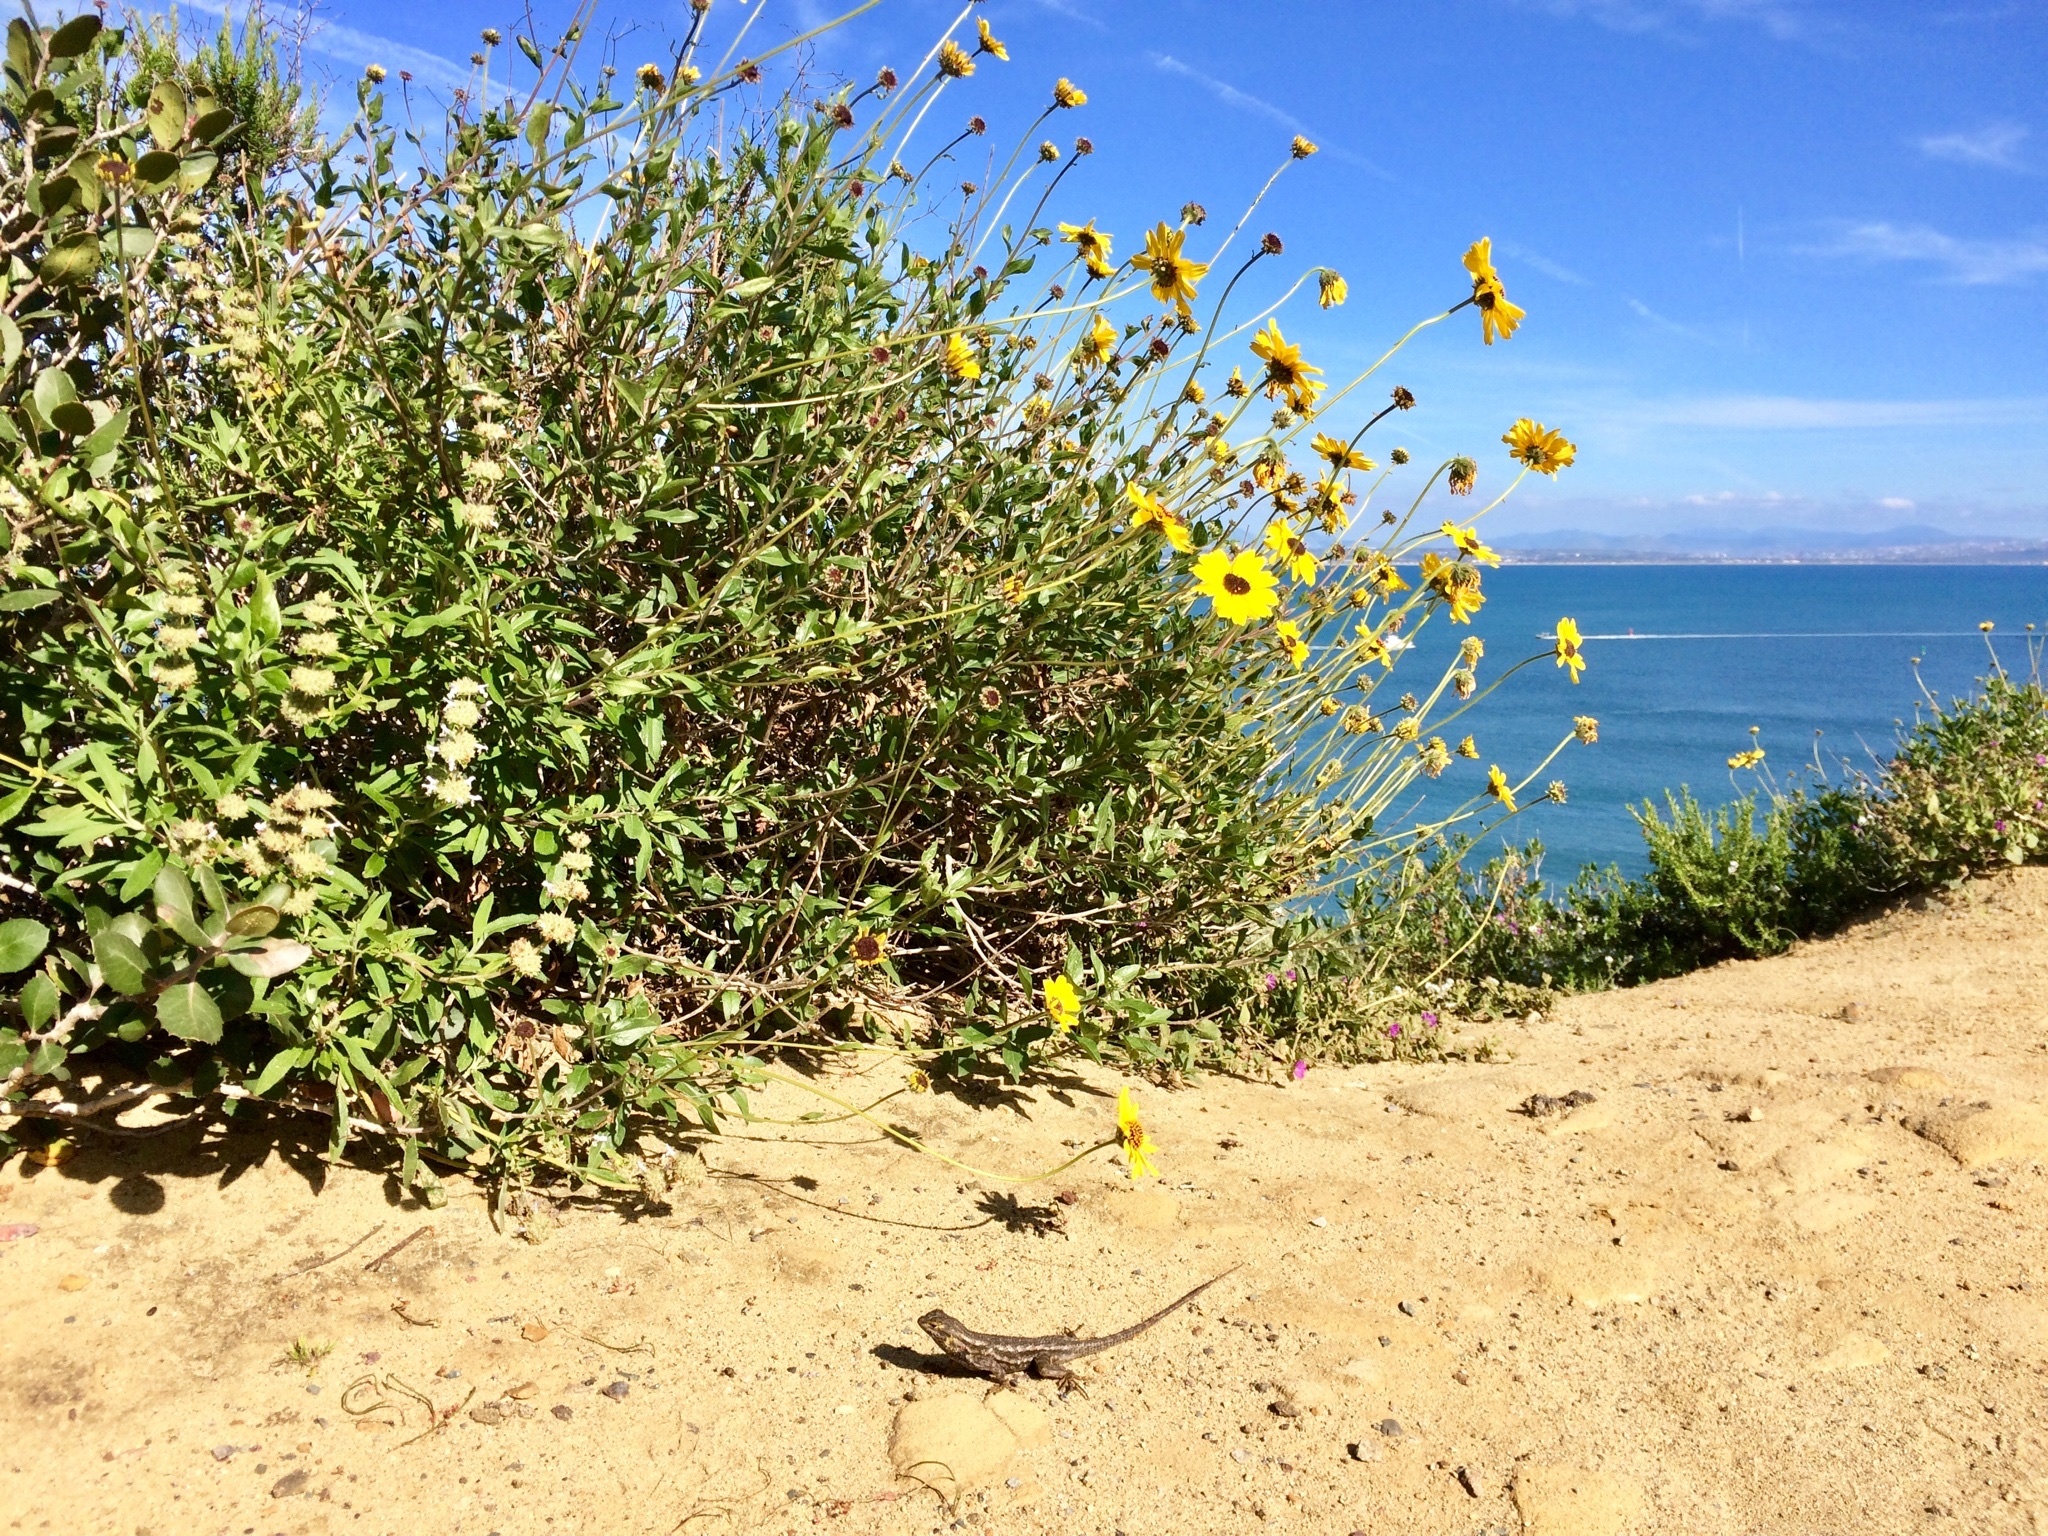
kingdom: Animalia
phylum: Chordata
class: Squamata
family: Phrynosomatidae
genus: Sceloporus
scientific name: Sceloporus occidentalis
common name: Western fence lizard
